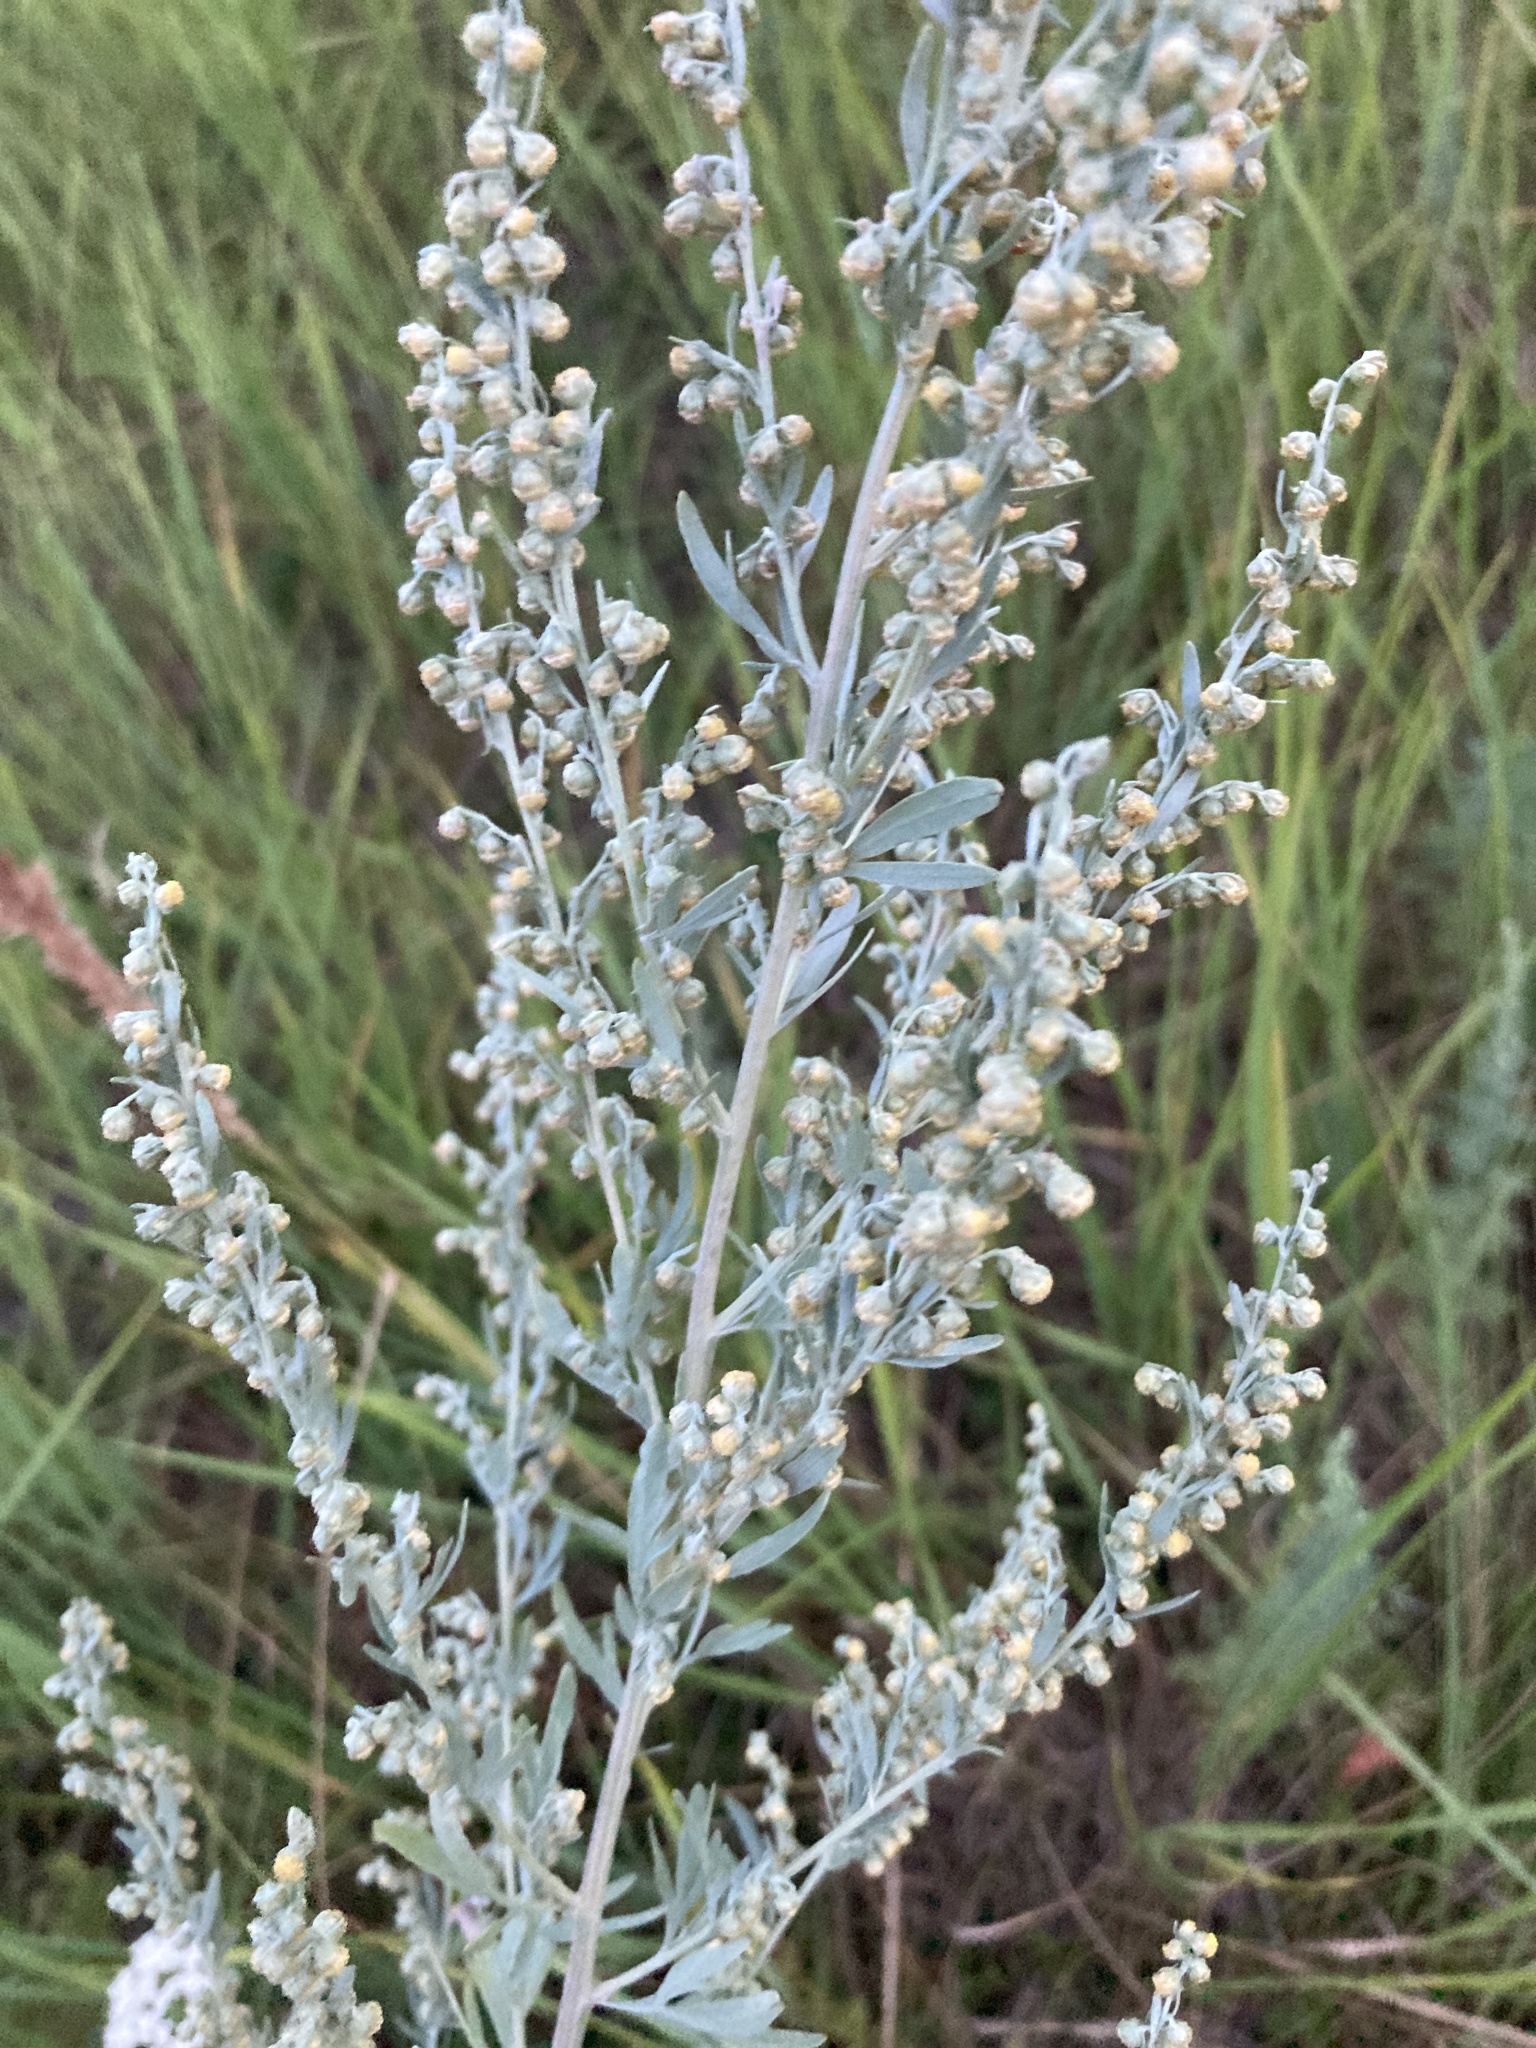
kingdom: Plantae
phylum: Tracheophyta
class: Magnoliopsida
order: Asterales
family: Asteraceae
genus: Artemisia
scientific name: Artemisia absinthium
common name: Wormwood
